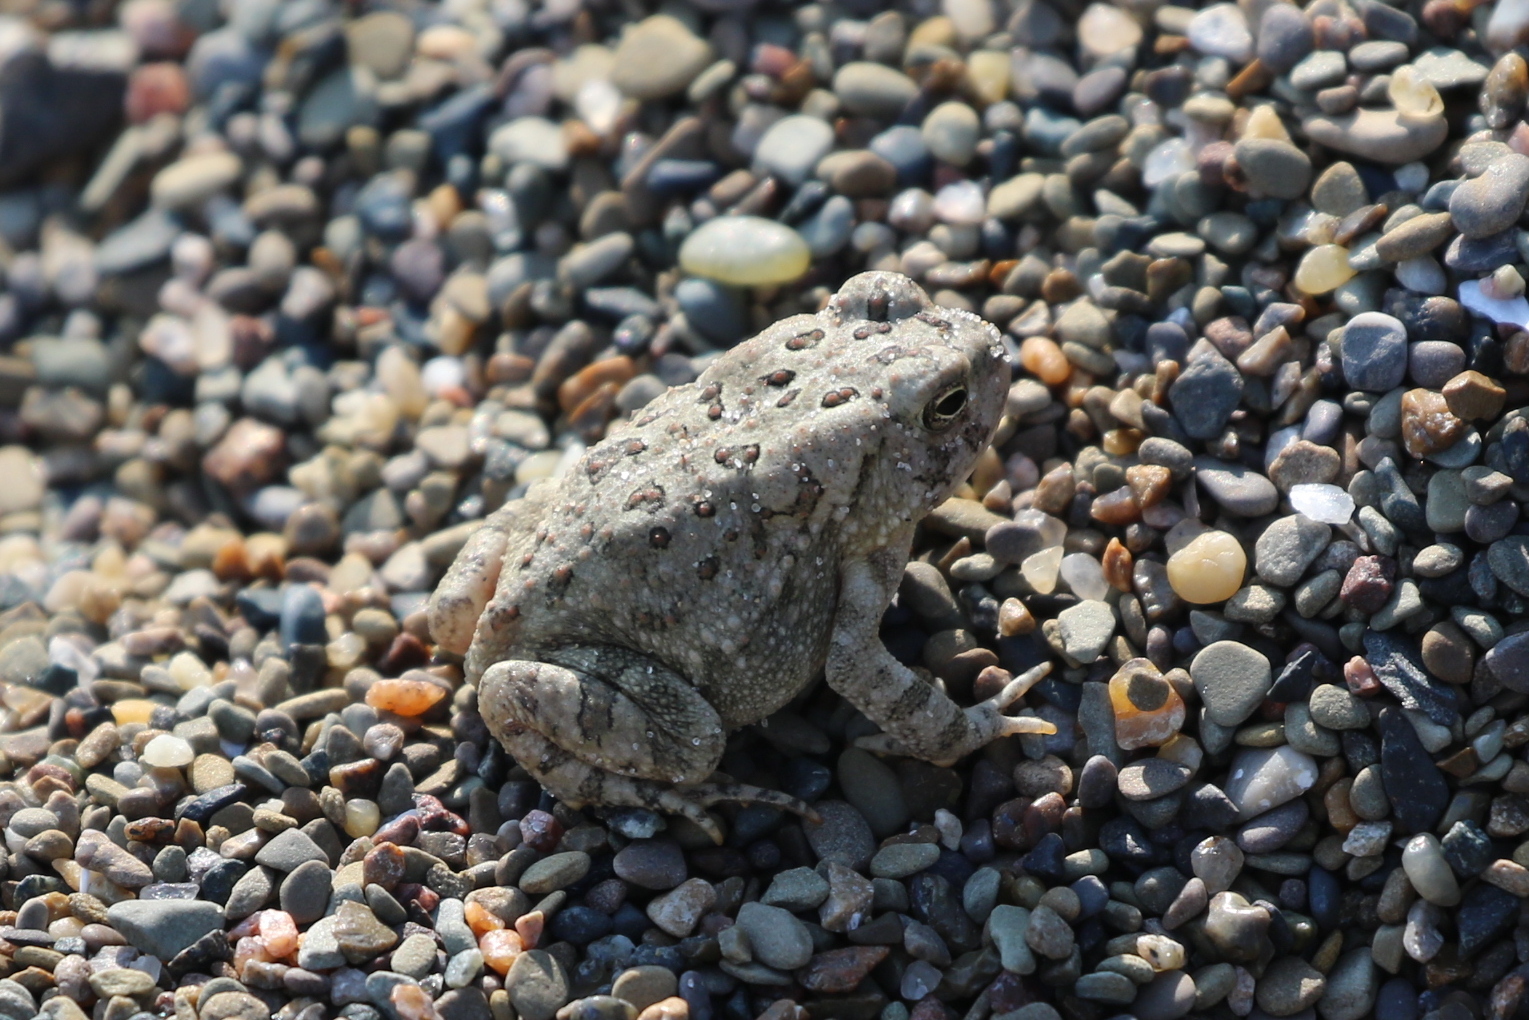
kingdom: Animalia
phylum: Chordata
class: Amphibia
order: Anura
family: Bufonidae
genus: Anaxyrus
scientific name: Anaxyrus fowleri
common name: Fowler's toad
